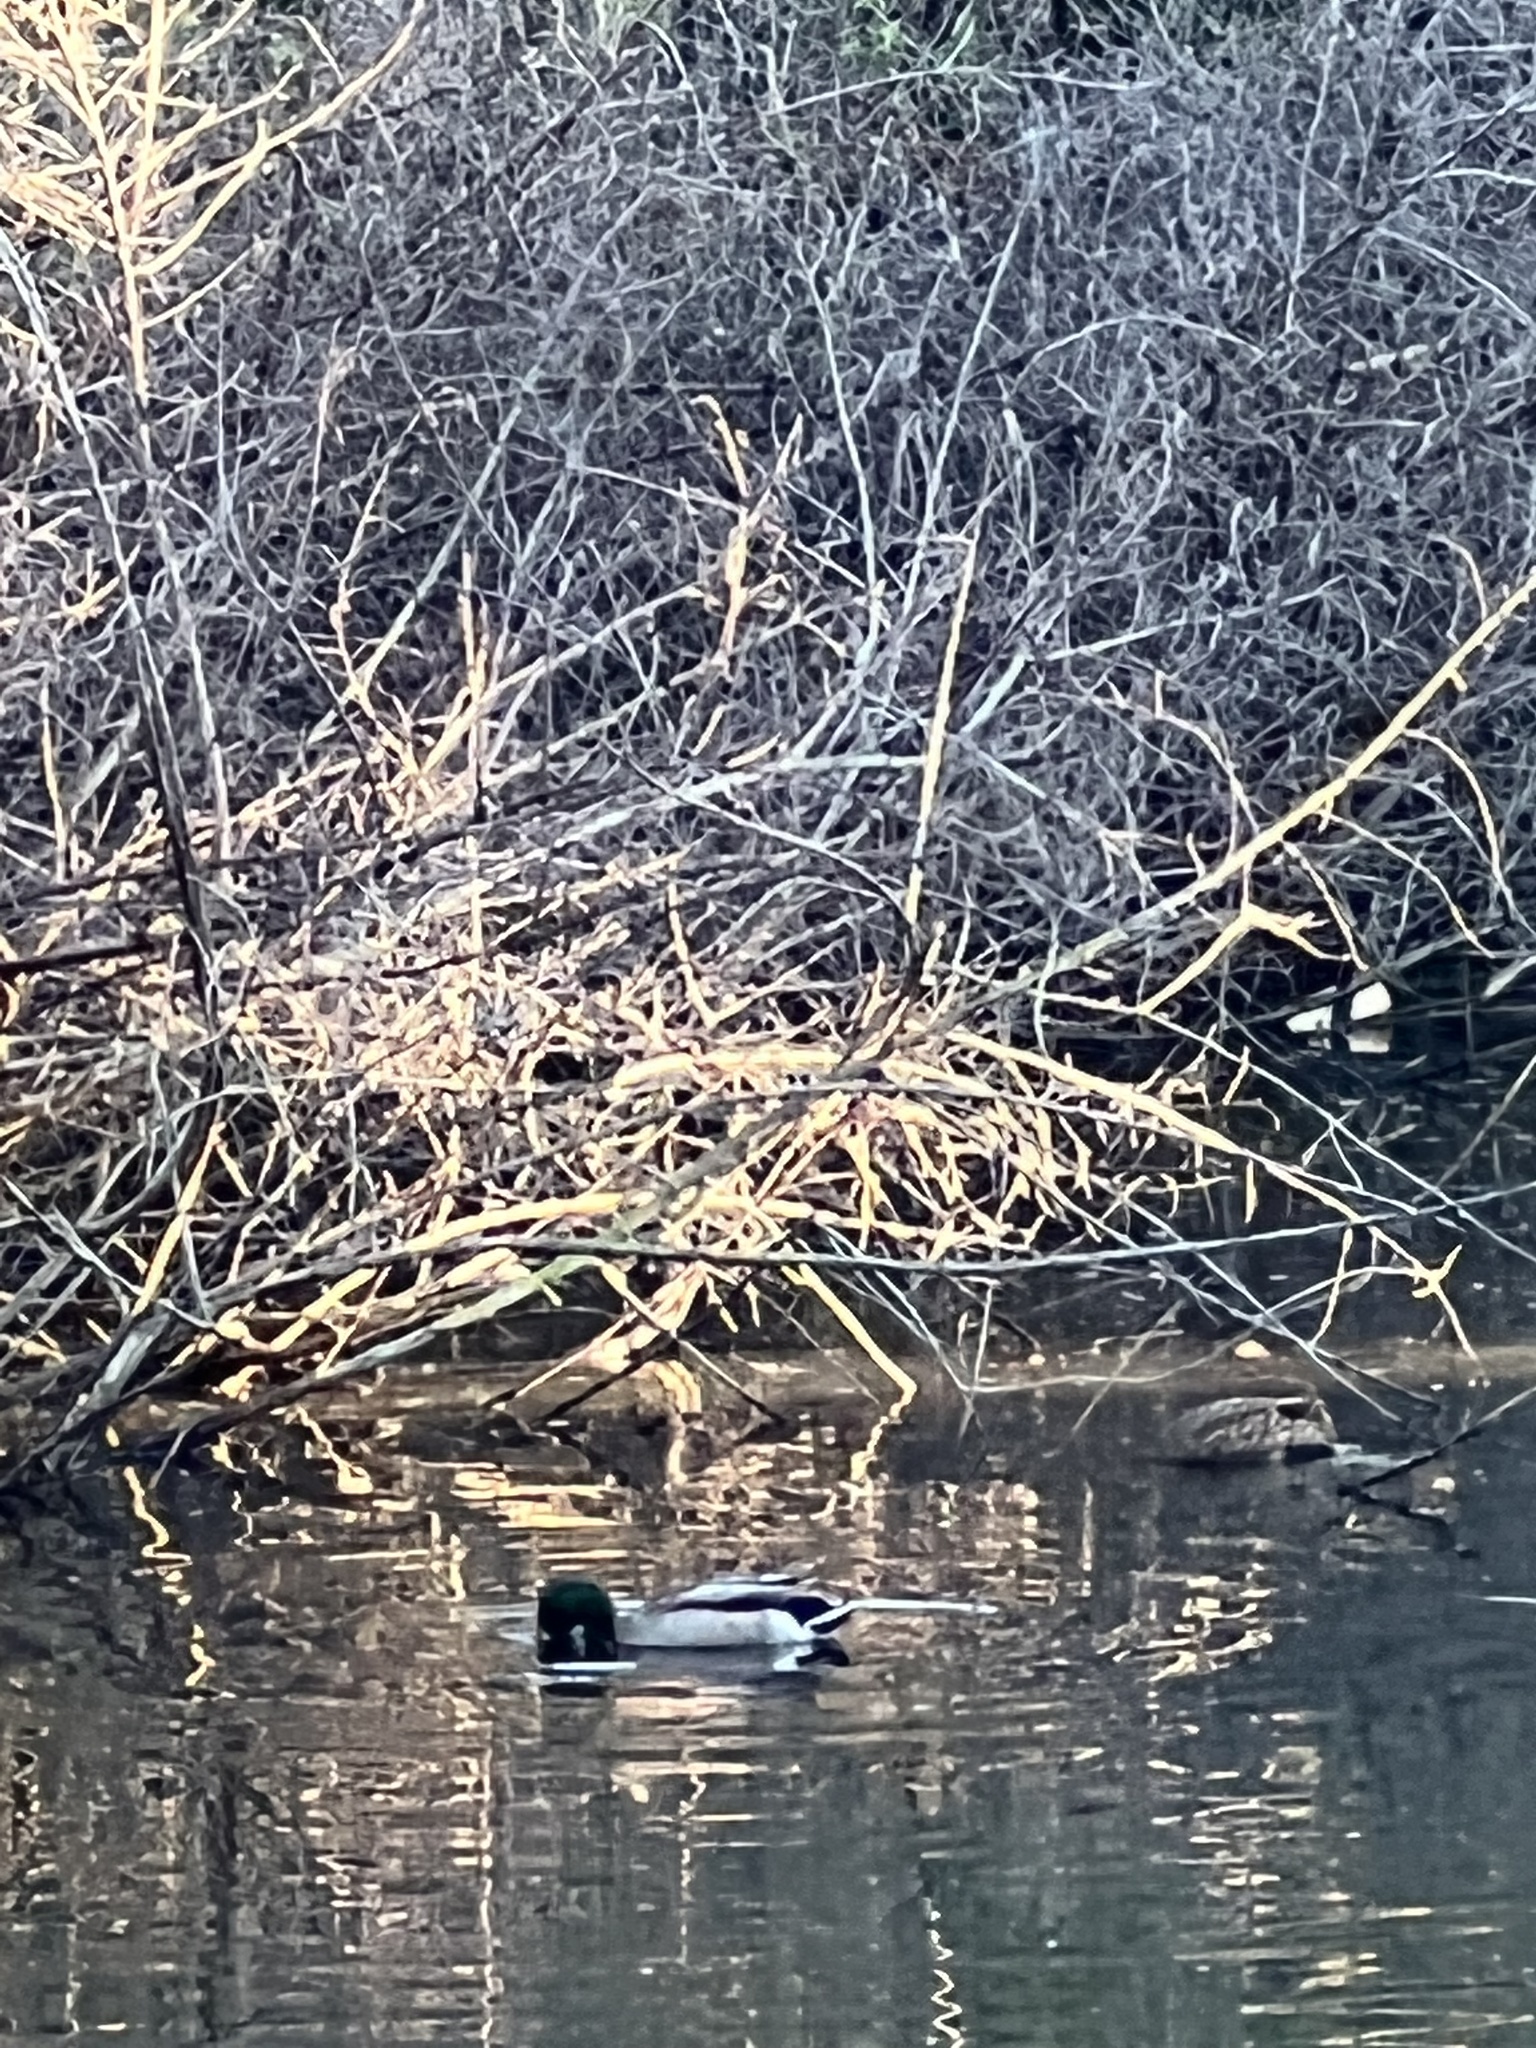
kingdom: Animalia
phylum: Chordata
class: Aves
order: Anseriformes
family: Anatidae
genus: Anas
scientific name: Anas platyrhynchos
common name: Mallard
